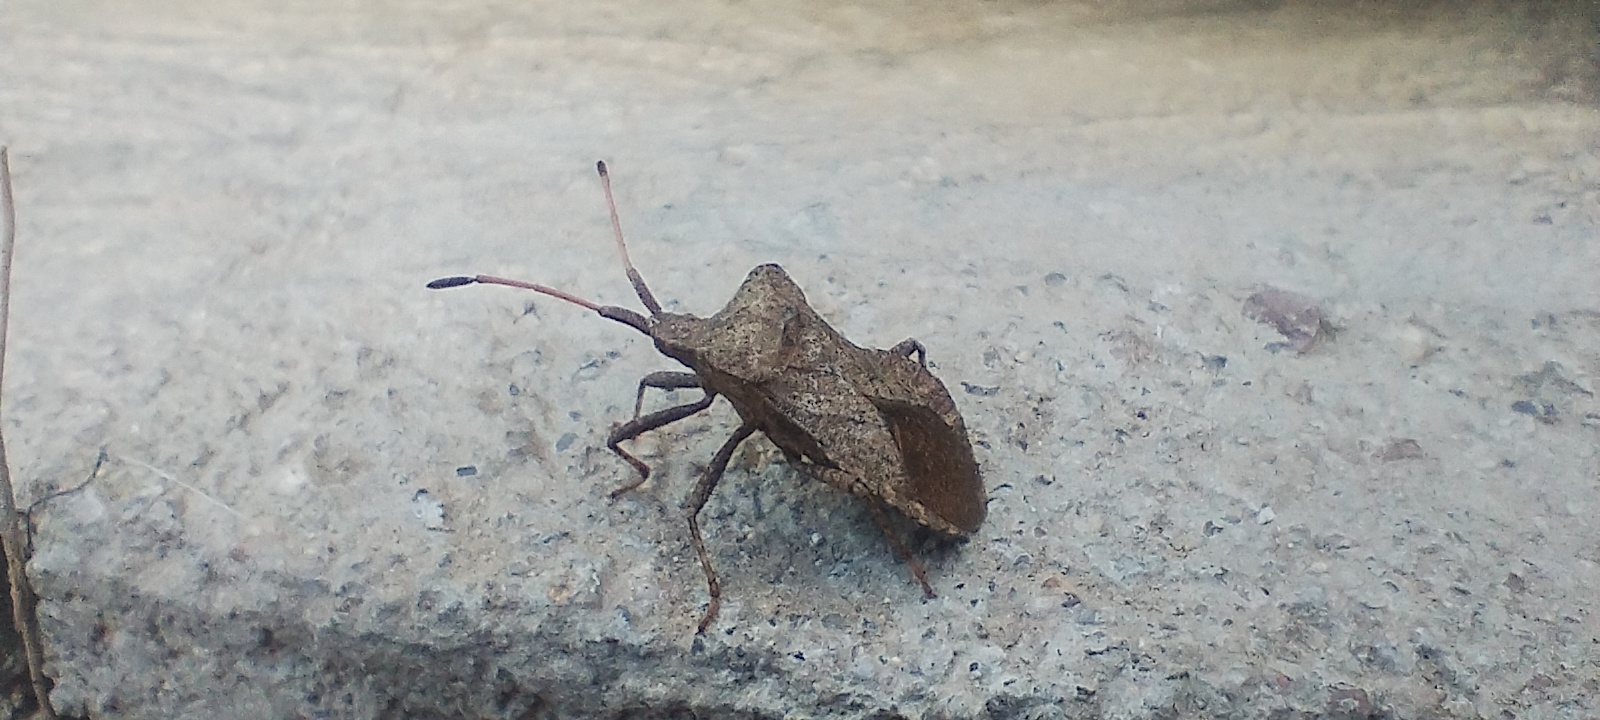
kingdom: Animalia
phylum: Arthropoda
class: Insecta
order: Hemiptera
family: Coreidae
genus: Coreus
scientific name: Coreus marginatus
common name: Dock bug
